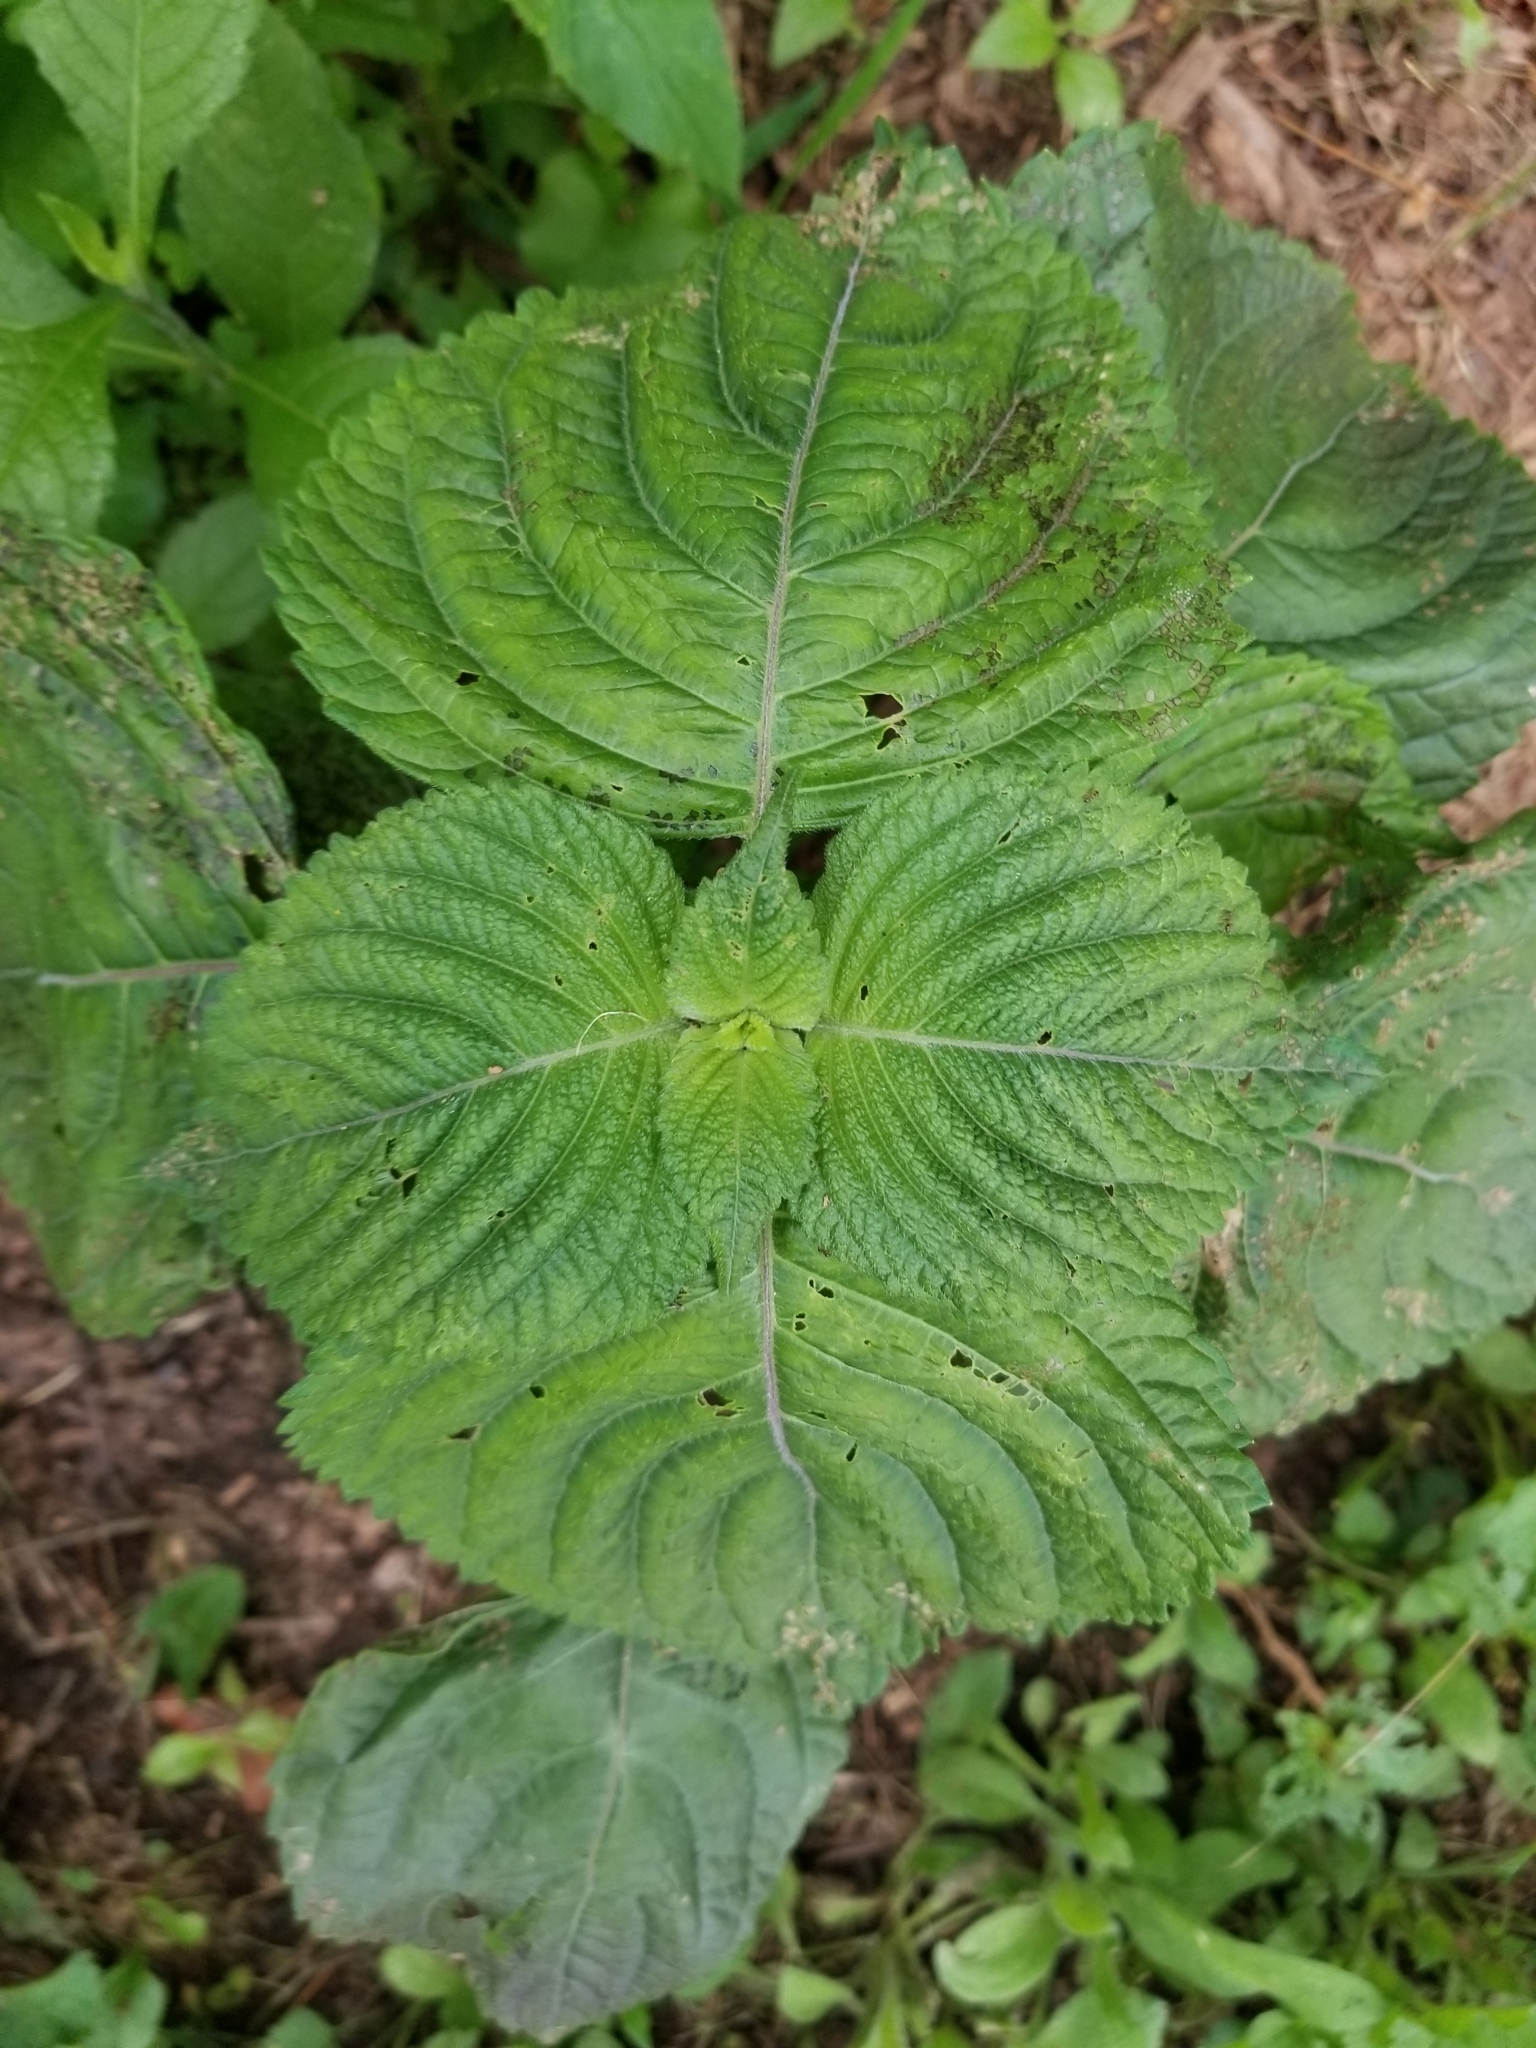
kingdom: Plantae
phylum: Tracheophyta
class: Magnoliopsida
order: Lamiales
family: Lamiaceae
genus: Perilla
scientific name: Perilla frutescens
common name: Perilla
